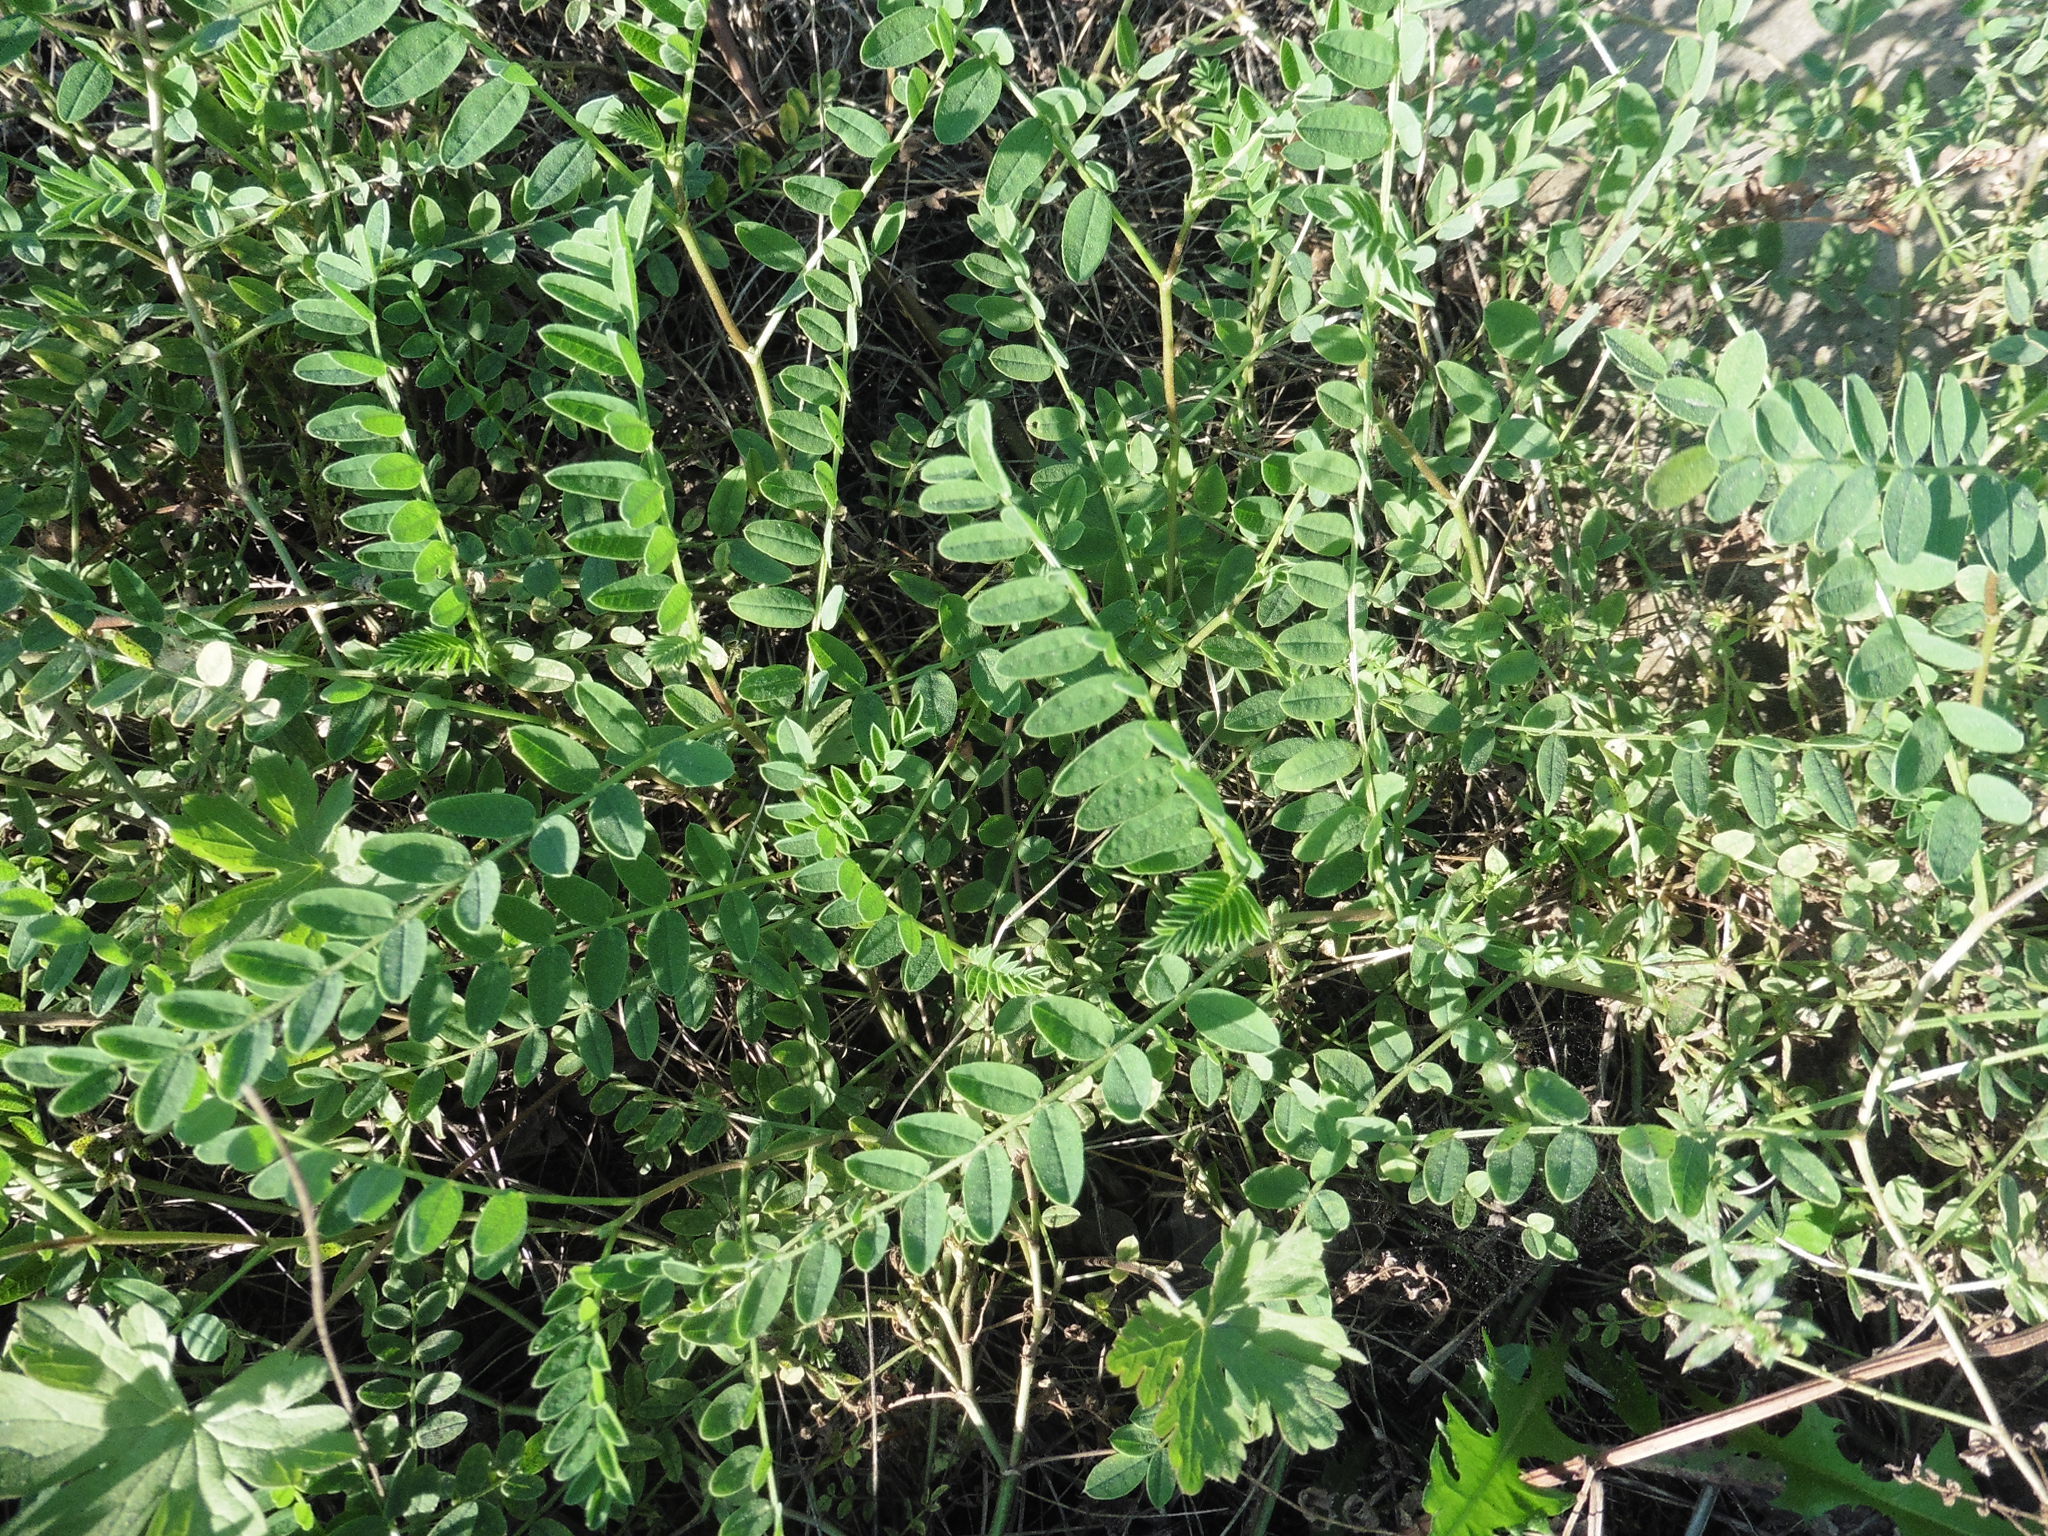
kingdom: Plantae
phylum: Tracheophyta
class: Magnoliopsida
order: Fabales
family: Fabaceae
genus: Astragalus
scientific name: Astragalus cicer
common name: Chick-pea milk-vetch
